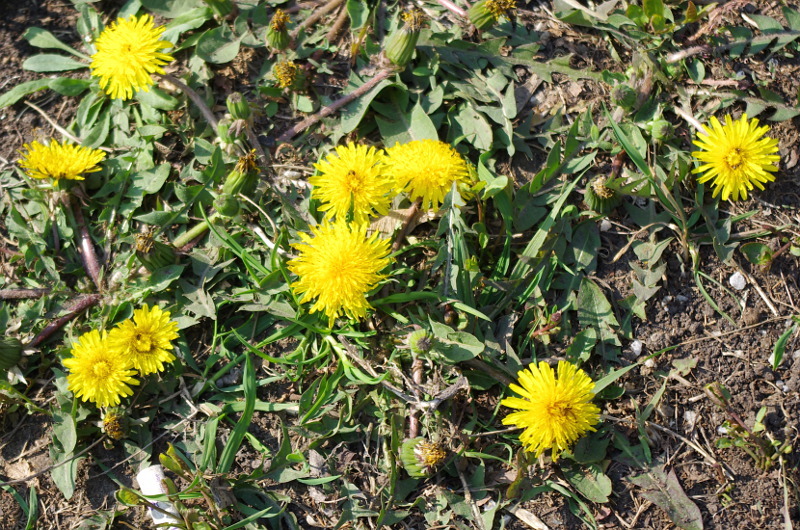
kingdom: Plantae
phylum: Tracheophyta
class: Magnoliopsida
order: Asterales
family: Asteraceae
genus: Taraxacum
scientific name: Taraxacum officinale
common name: Common dandelion
